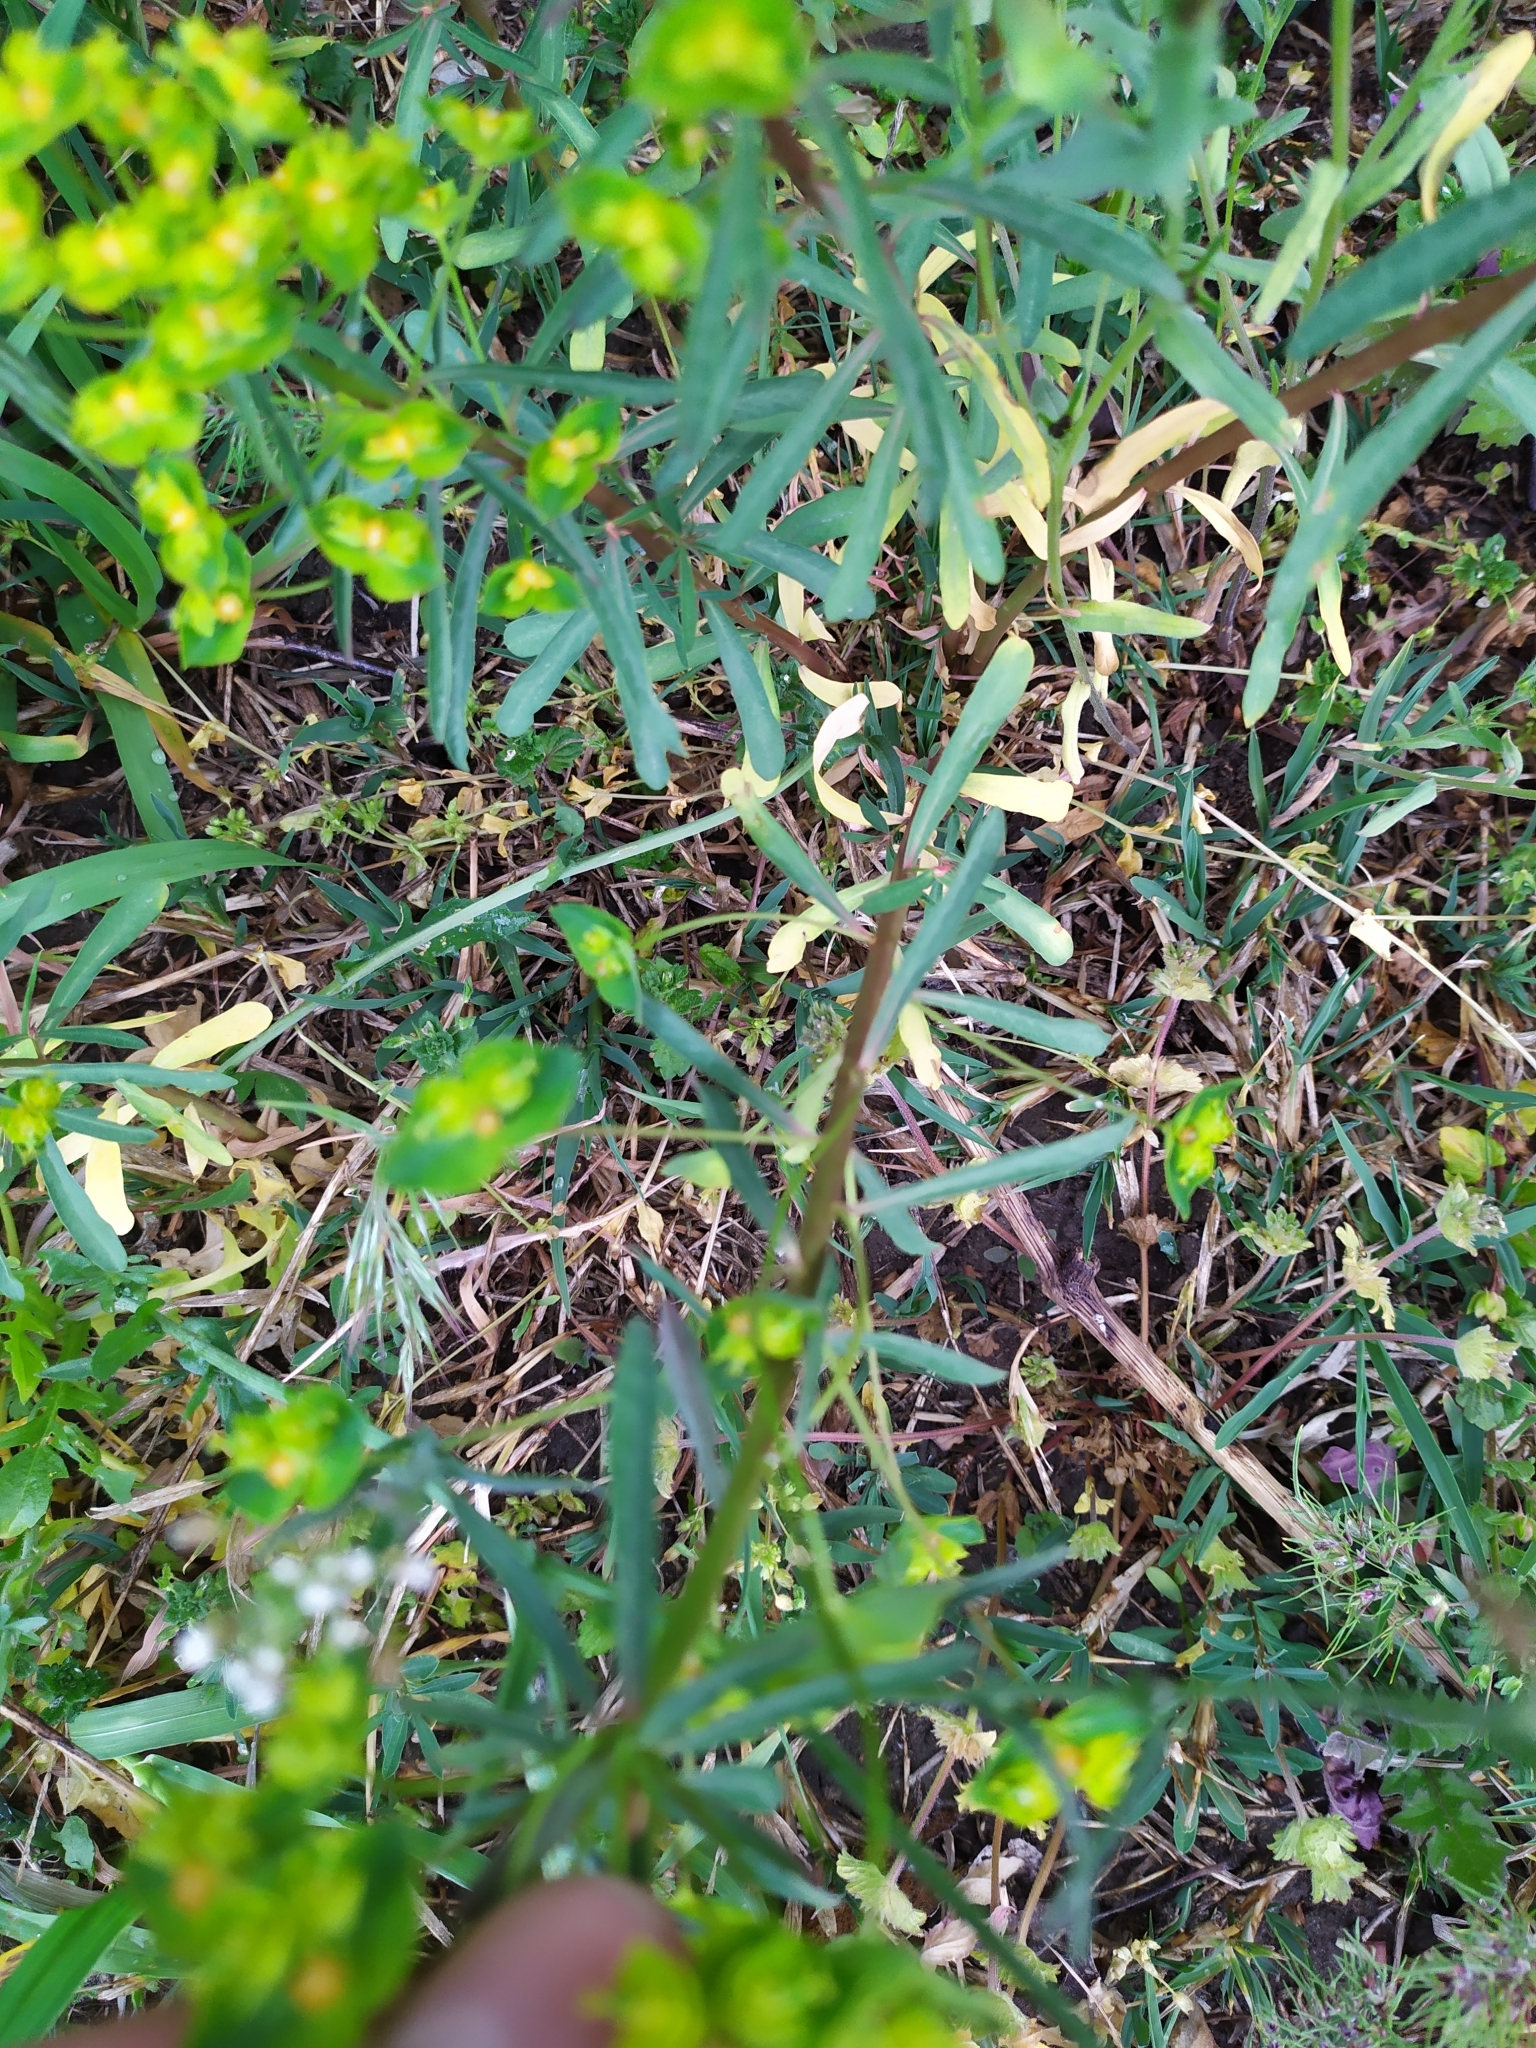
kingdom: Plantae
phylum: Tracheophyta
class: Magnoliopsida
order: Malpighiales
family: Euphorbiaceae
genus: Euphorbia
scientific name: Euphorbia esula
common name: Leafy spurge
